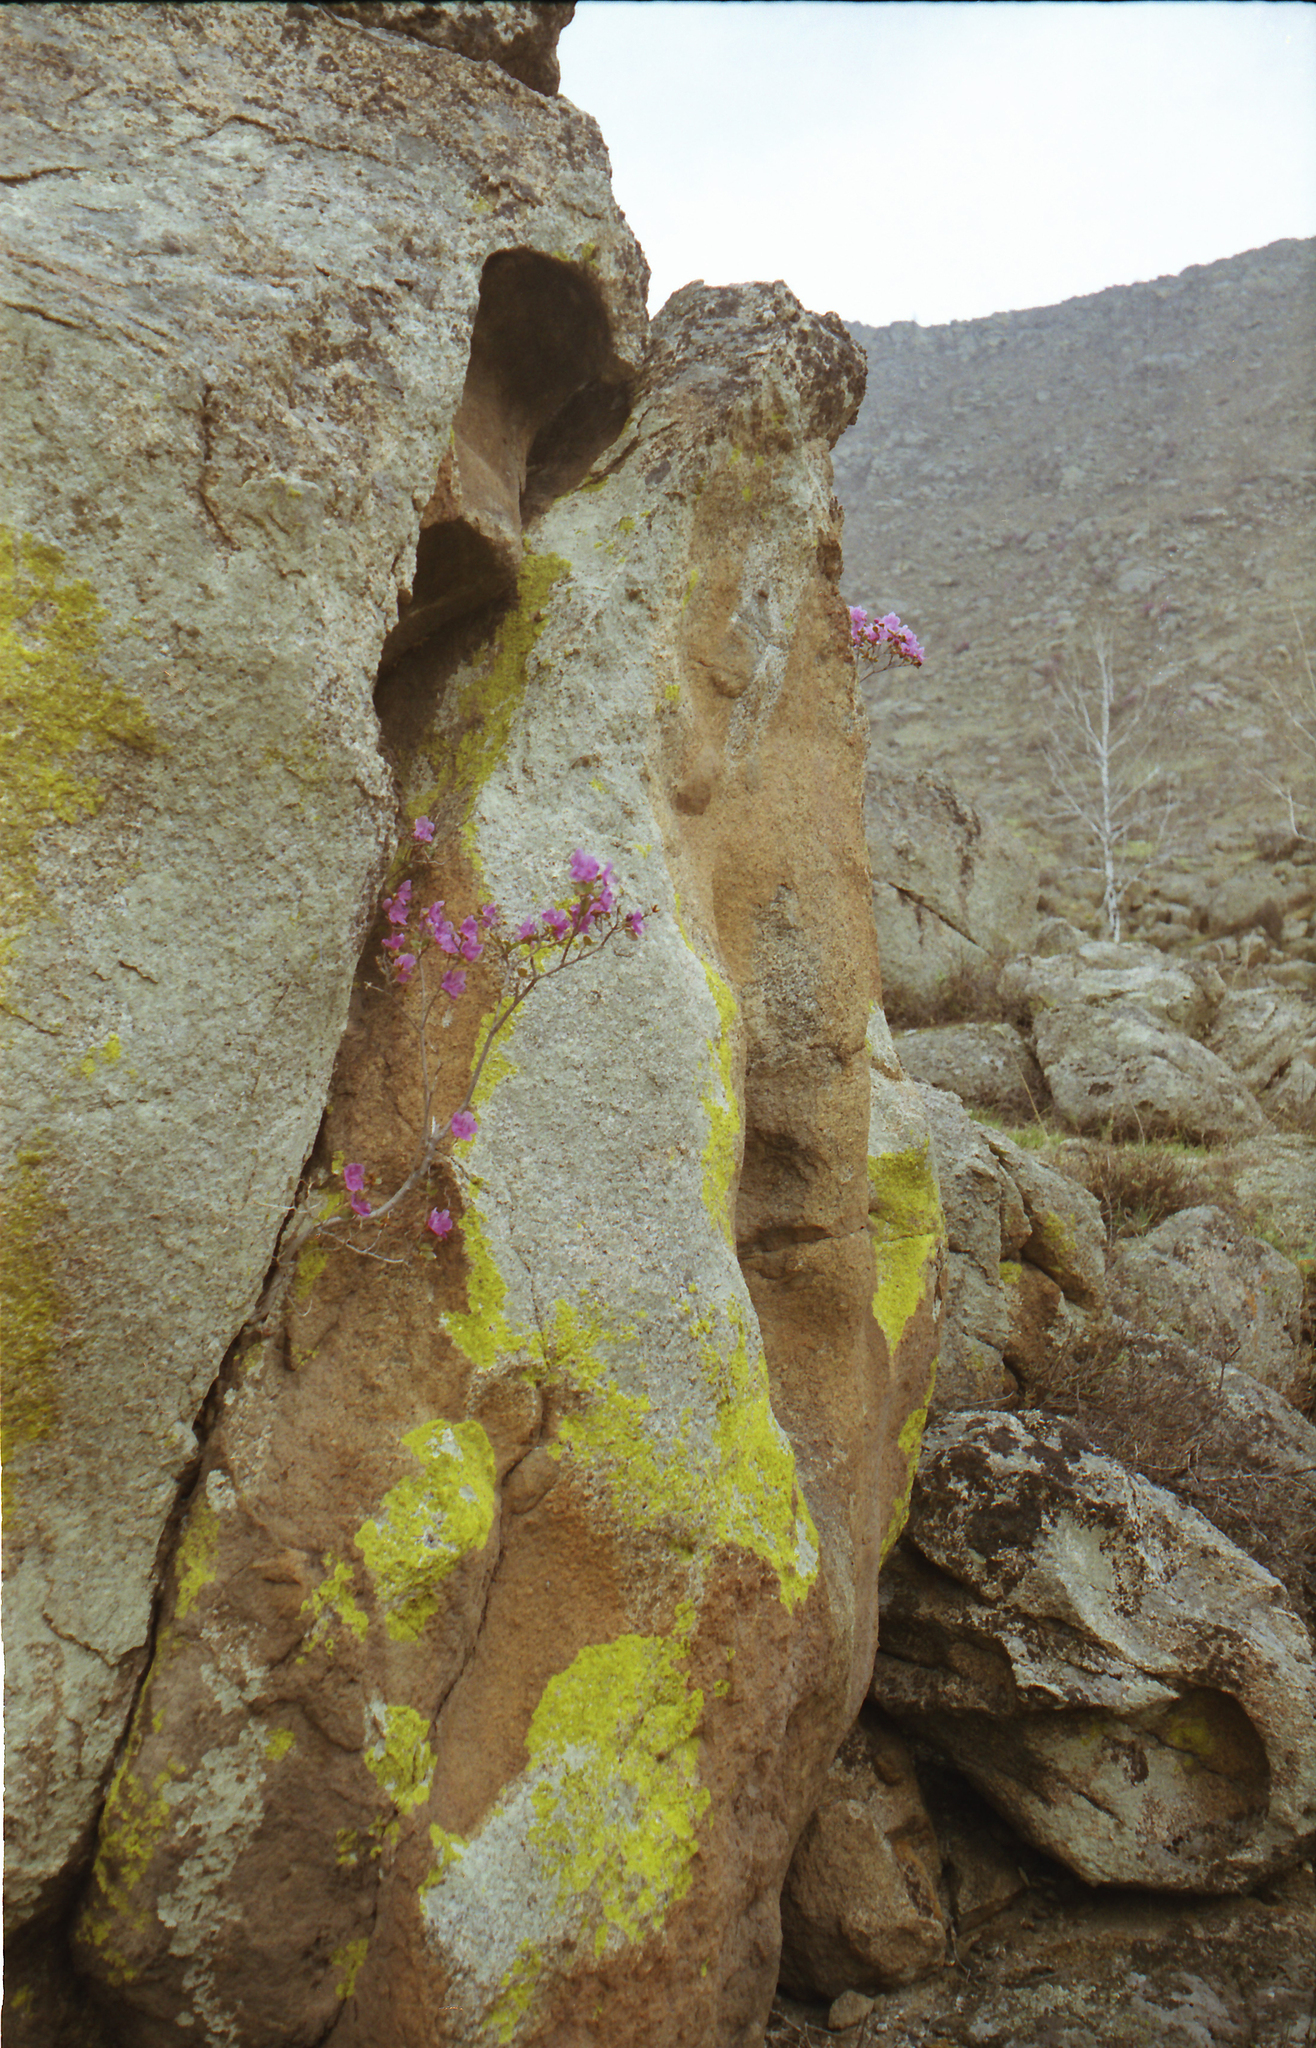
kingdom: Plantae
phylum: Tracheophyta
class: Magnoliopsida
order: Ericales
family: Ericaceae
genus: Rhododendron
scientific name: Rhododendron dauricum
